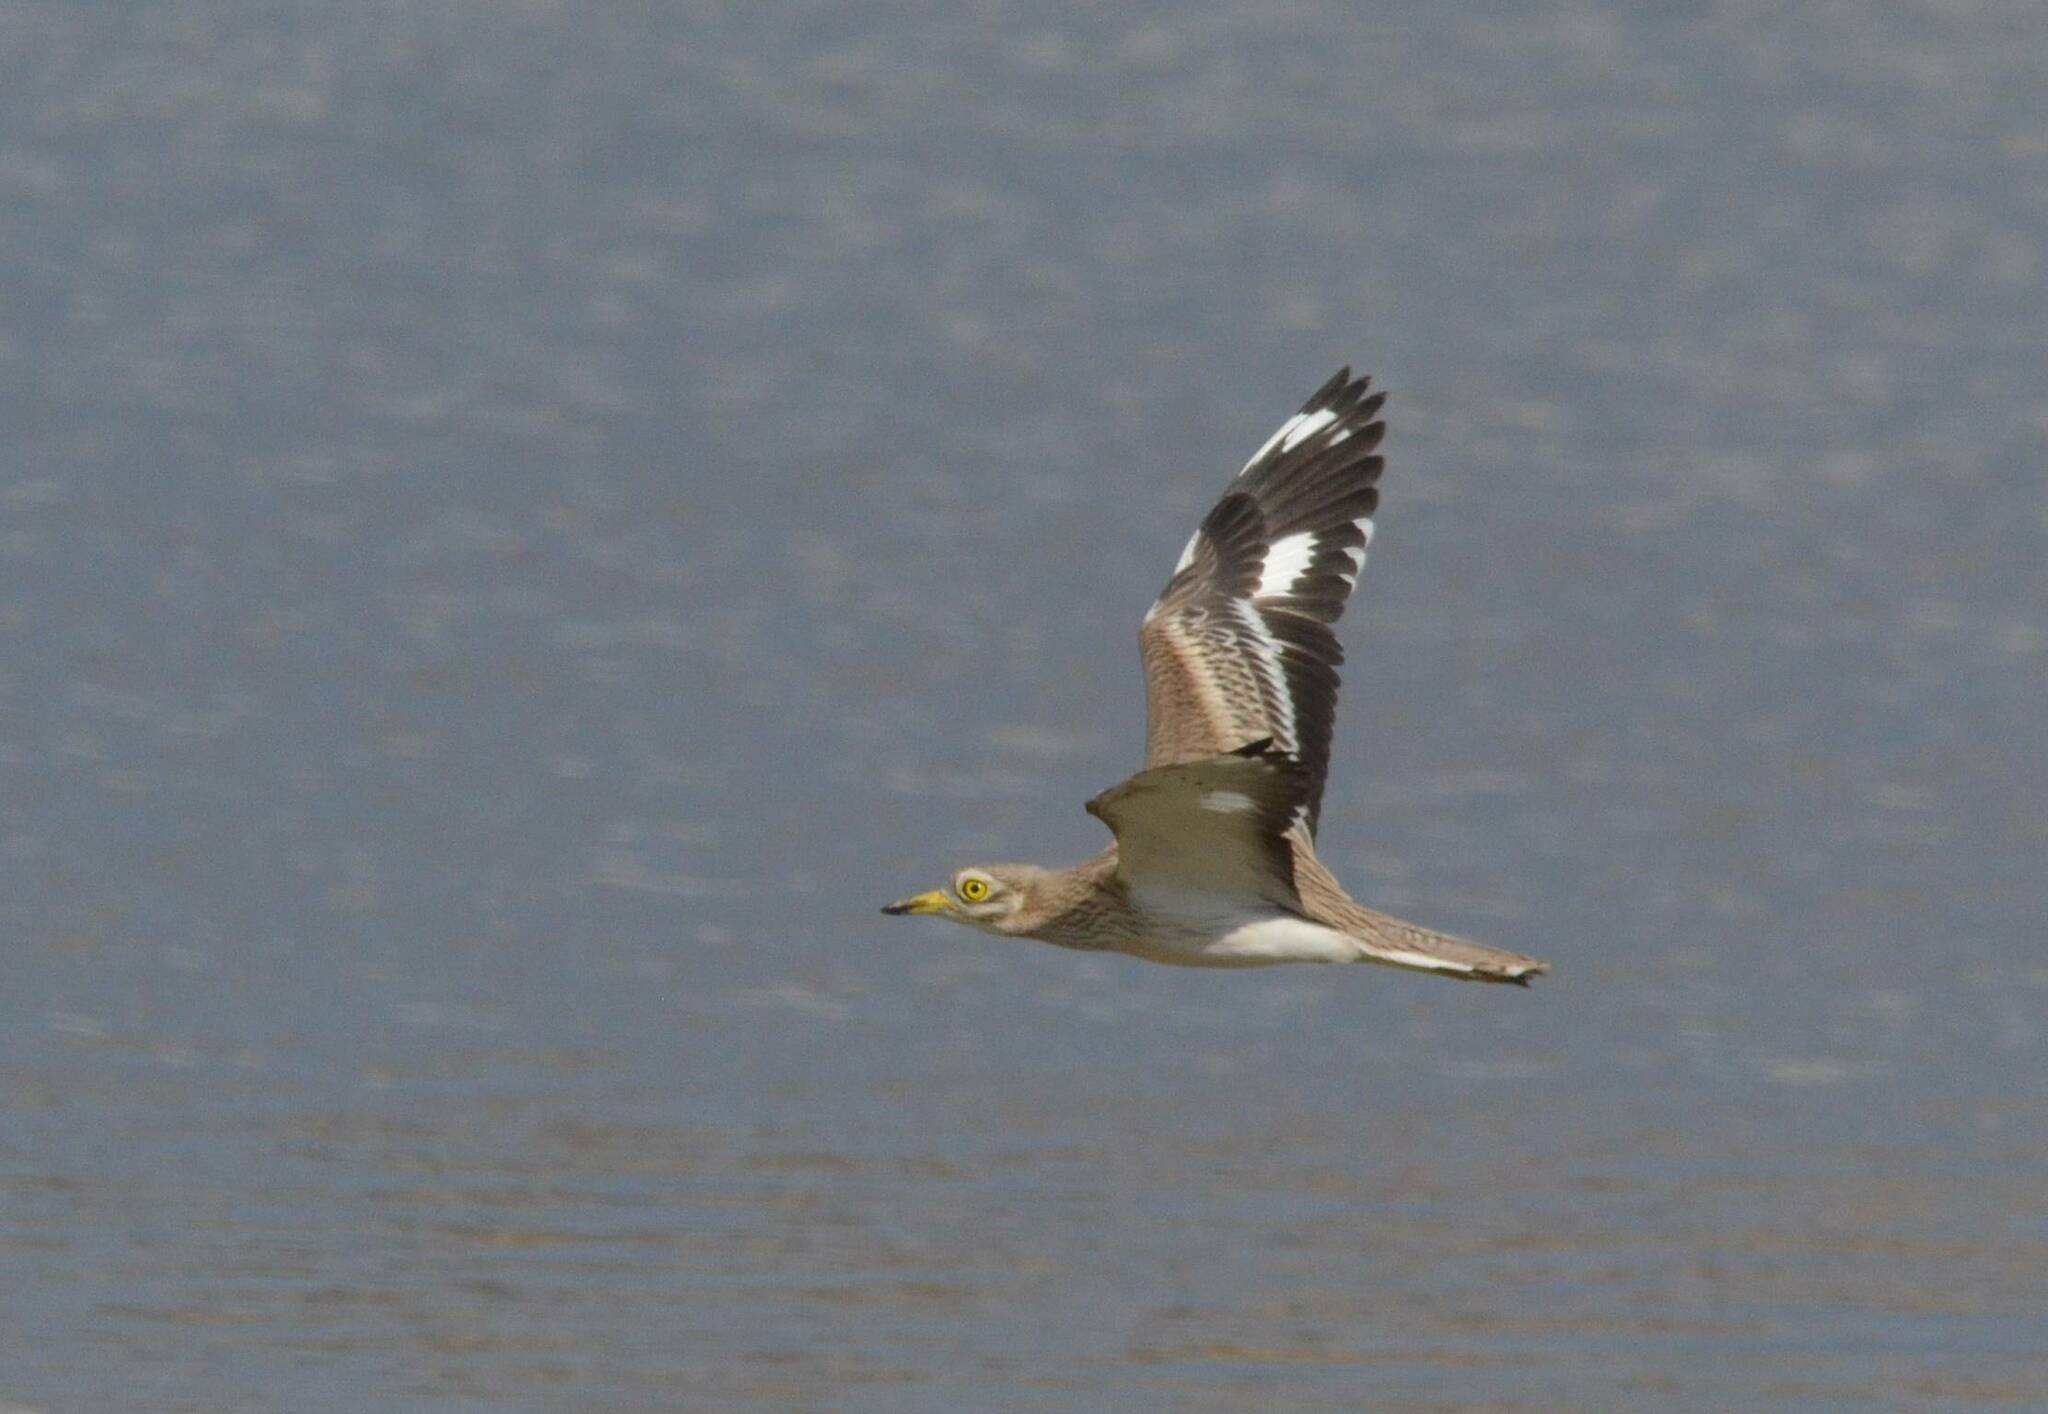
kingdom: Animalia
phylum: Chordata
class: Aves
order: Charadriiformes
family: Burhinidae
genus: Burhinus
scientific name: Burhinus oedicnemus
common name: Eurasian stone-curlew
